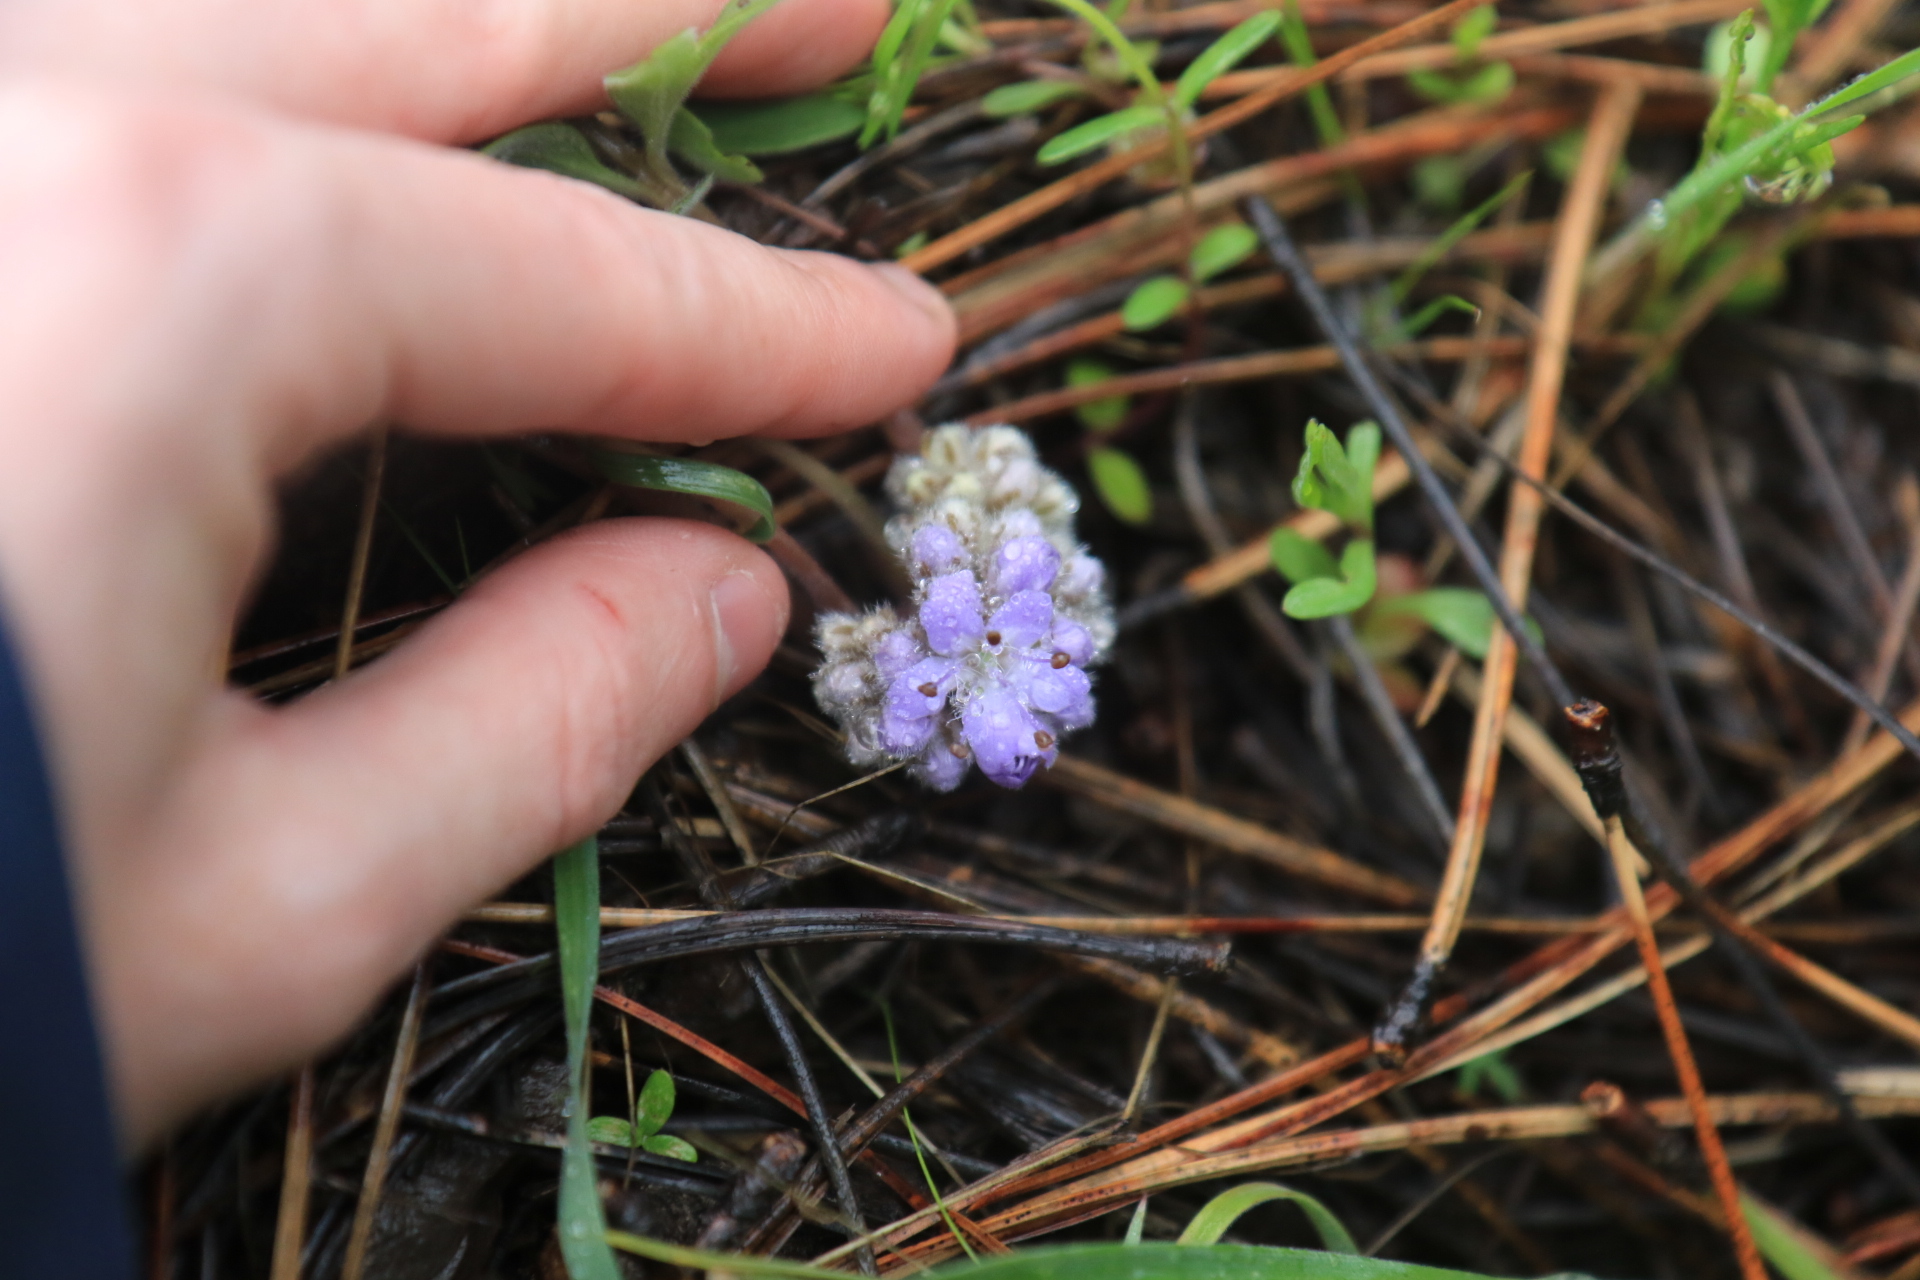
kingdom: Plantae
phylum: Tracheophyta
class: Magnoliopsida
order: Boraginales
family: Hydrophyllaceae
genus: Hydrophyllum
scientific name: Hydrophyllum alpestre
